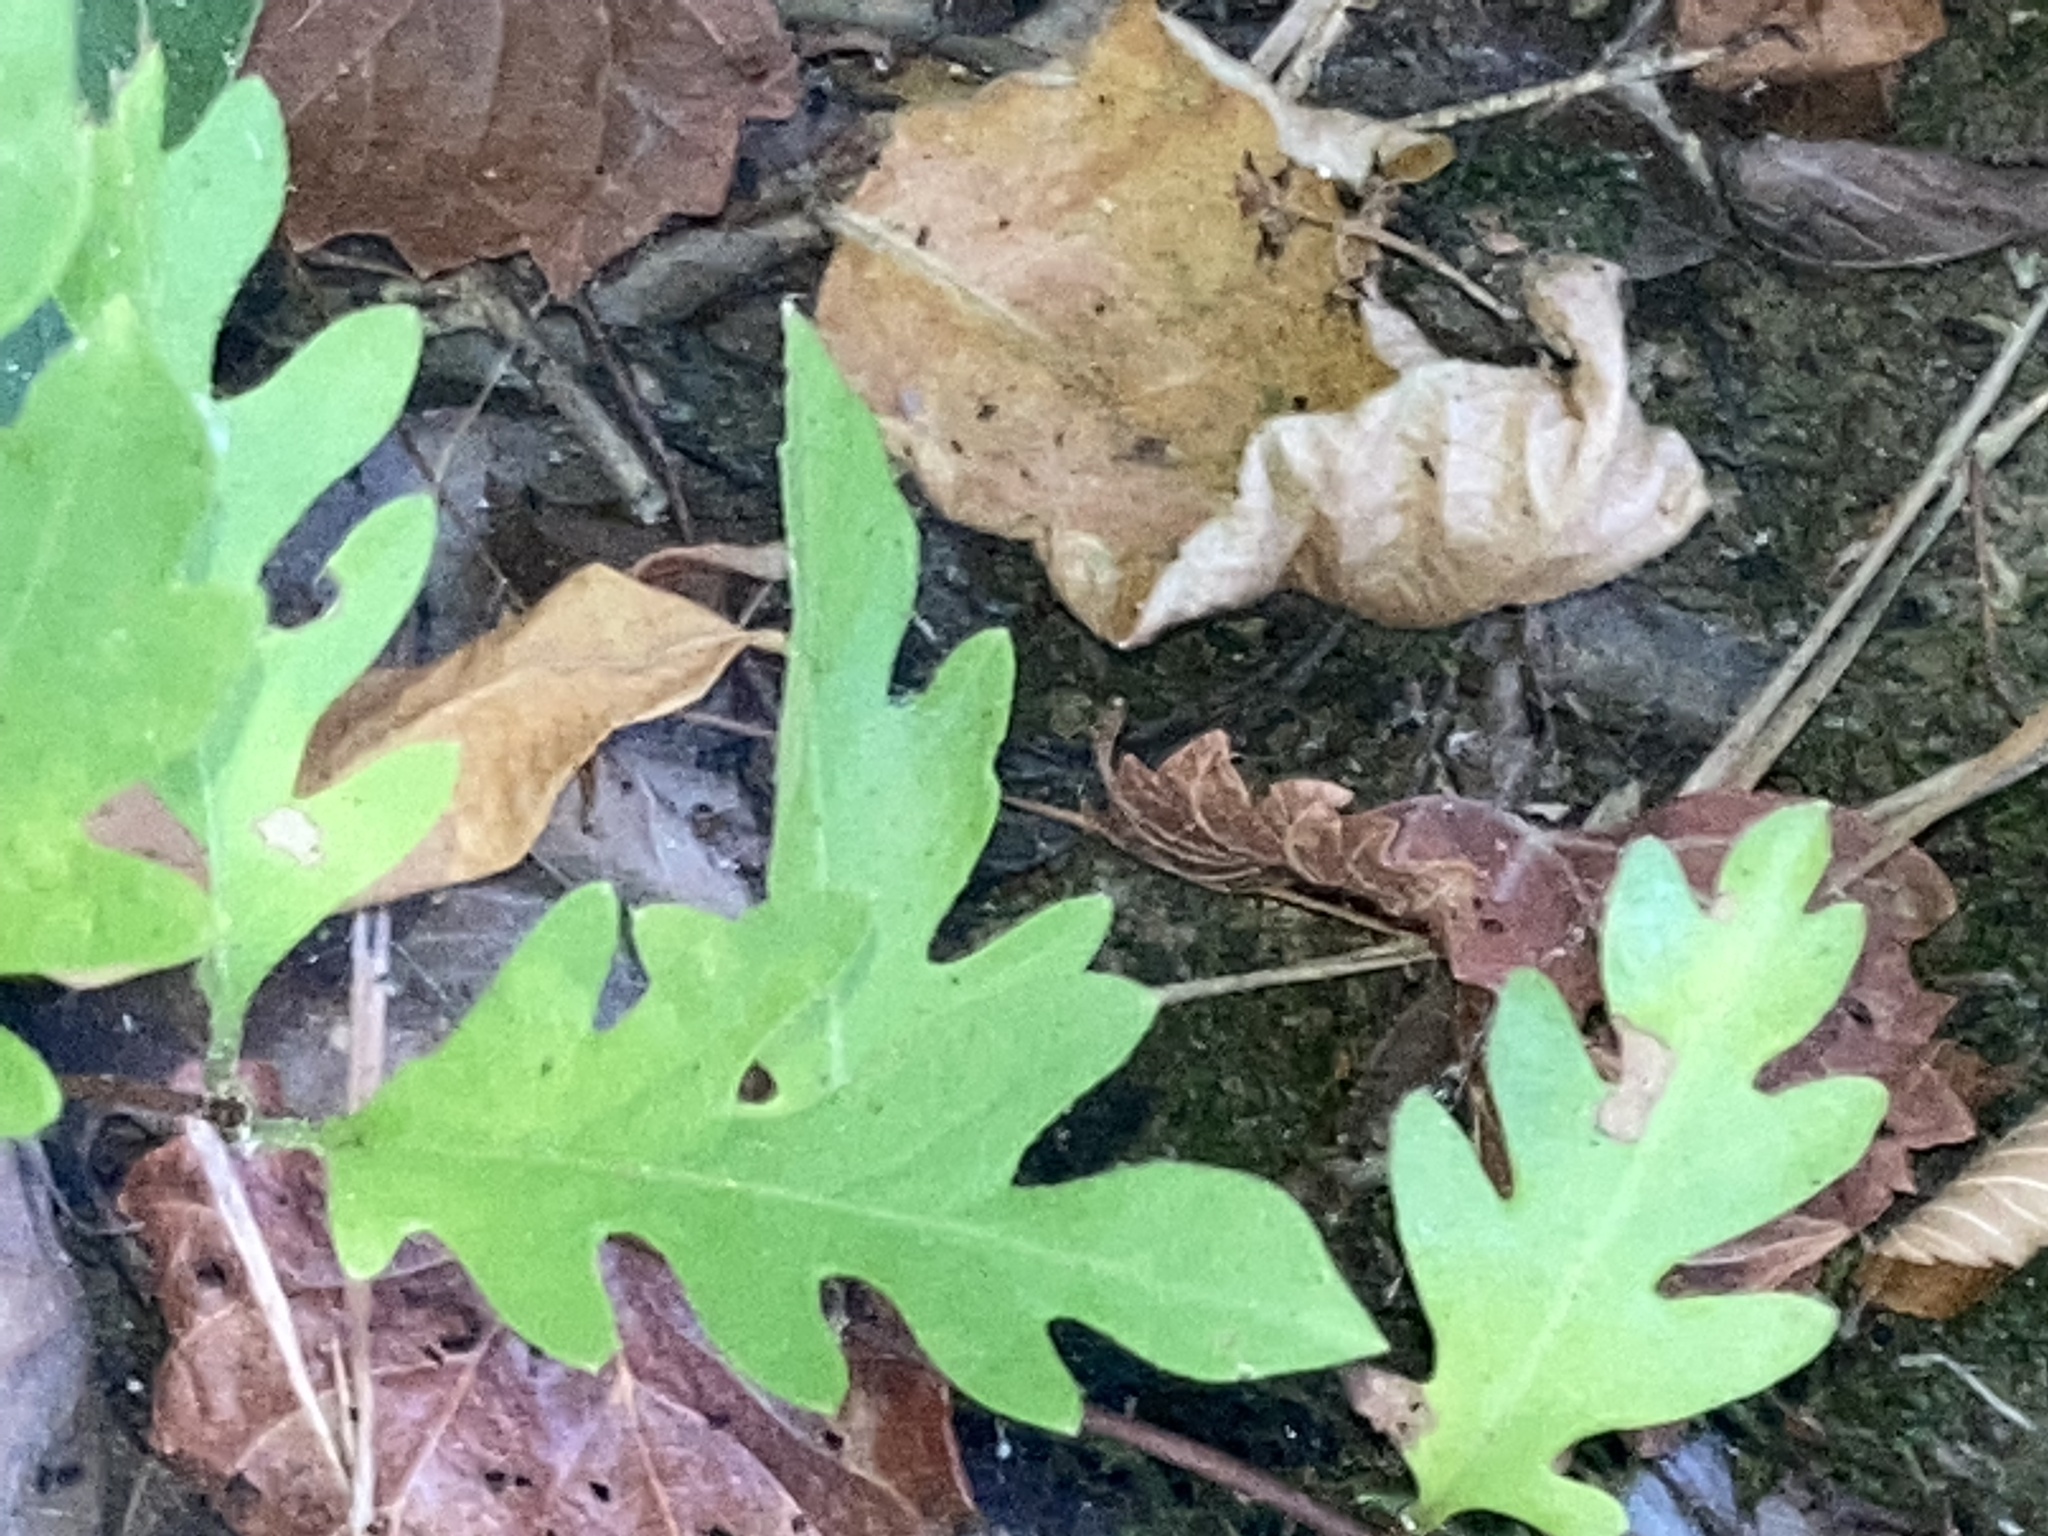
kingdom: Plantae
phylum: Tracheophyta
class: Magnoliopsida
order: Dipsacales
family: Caprifoliaceae
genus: Lonicera
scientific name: Lonicera japonica
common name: Japanese honeysuckle
